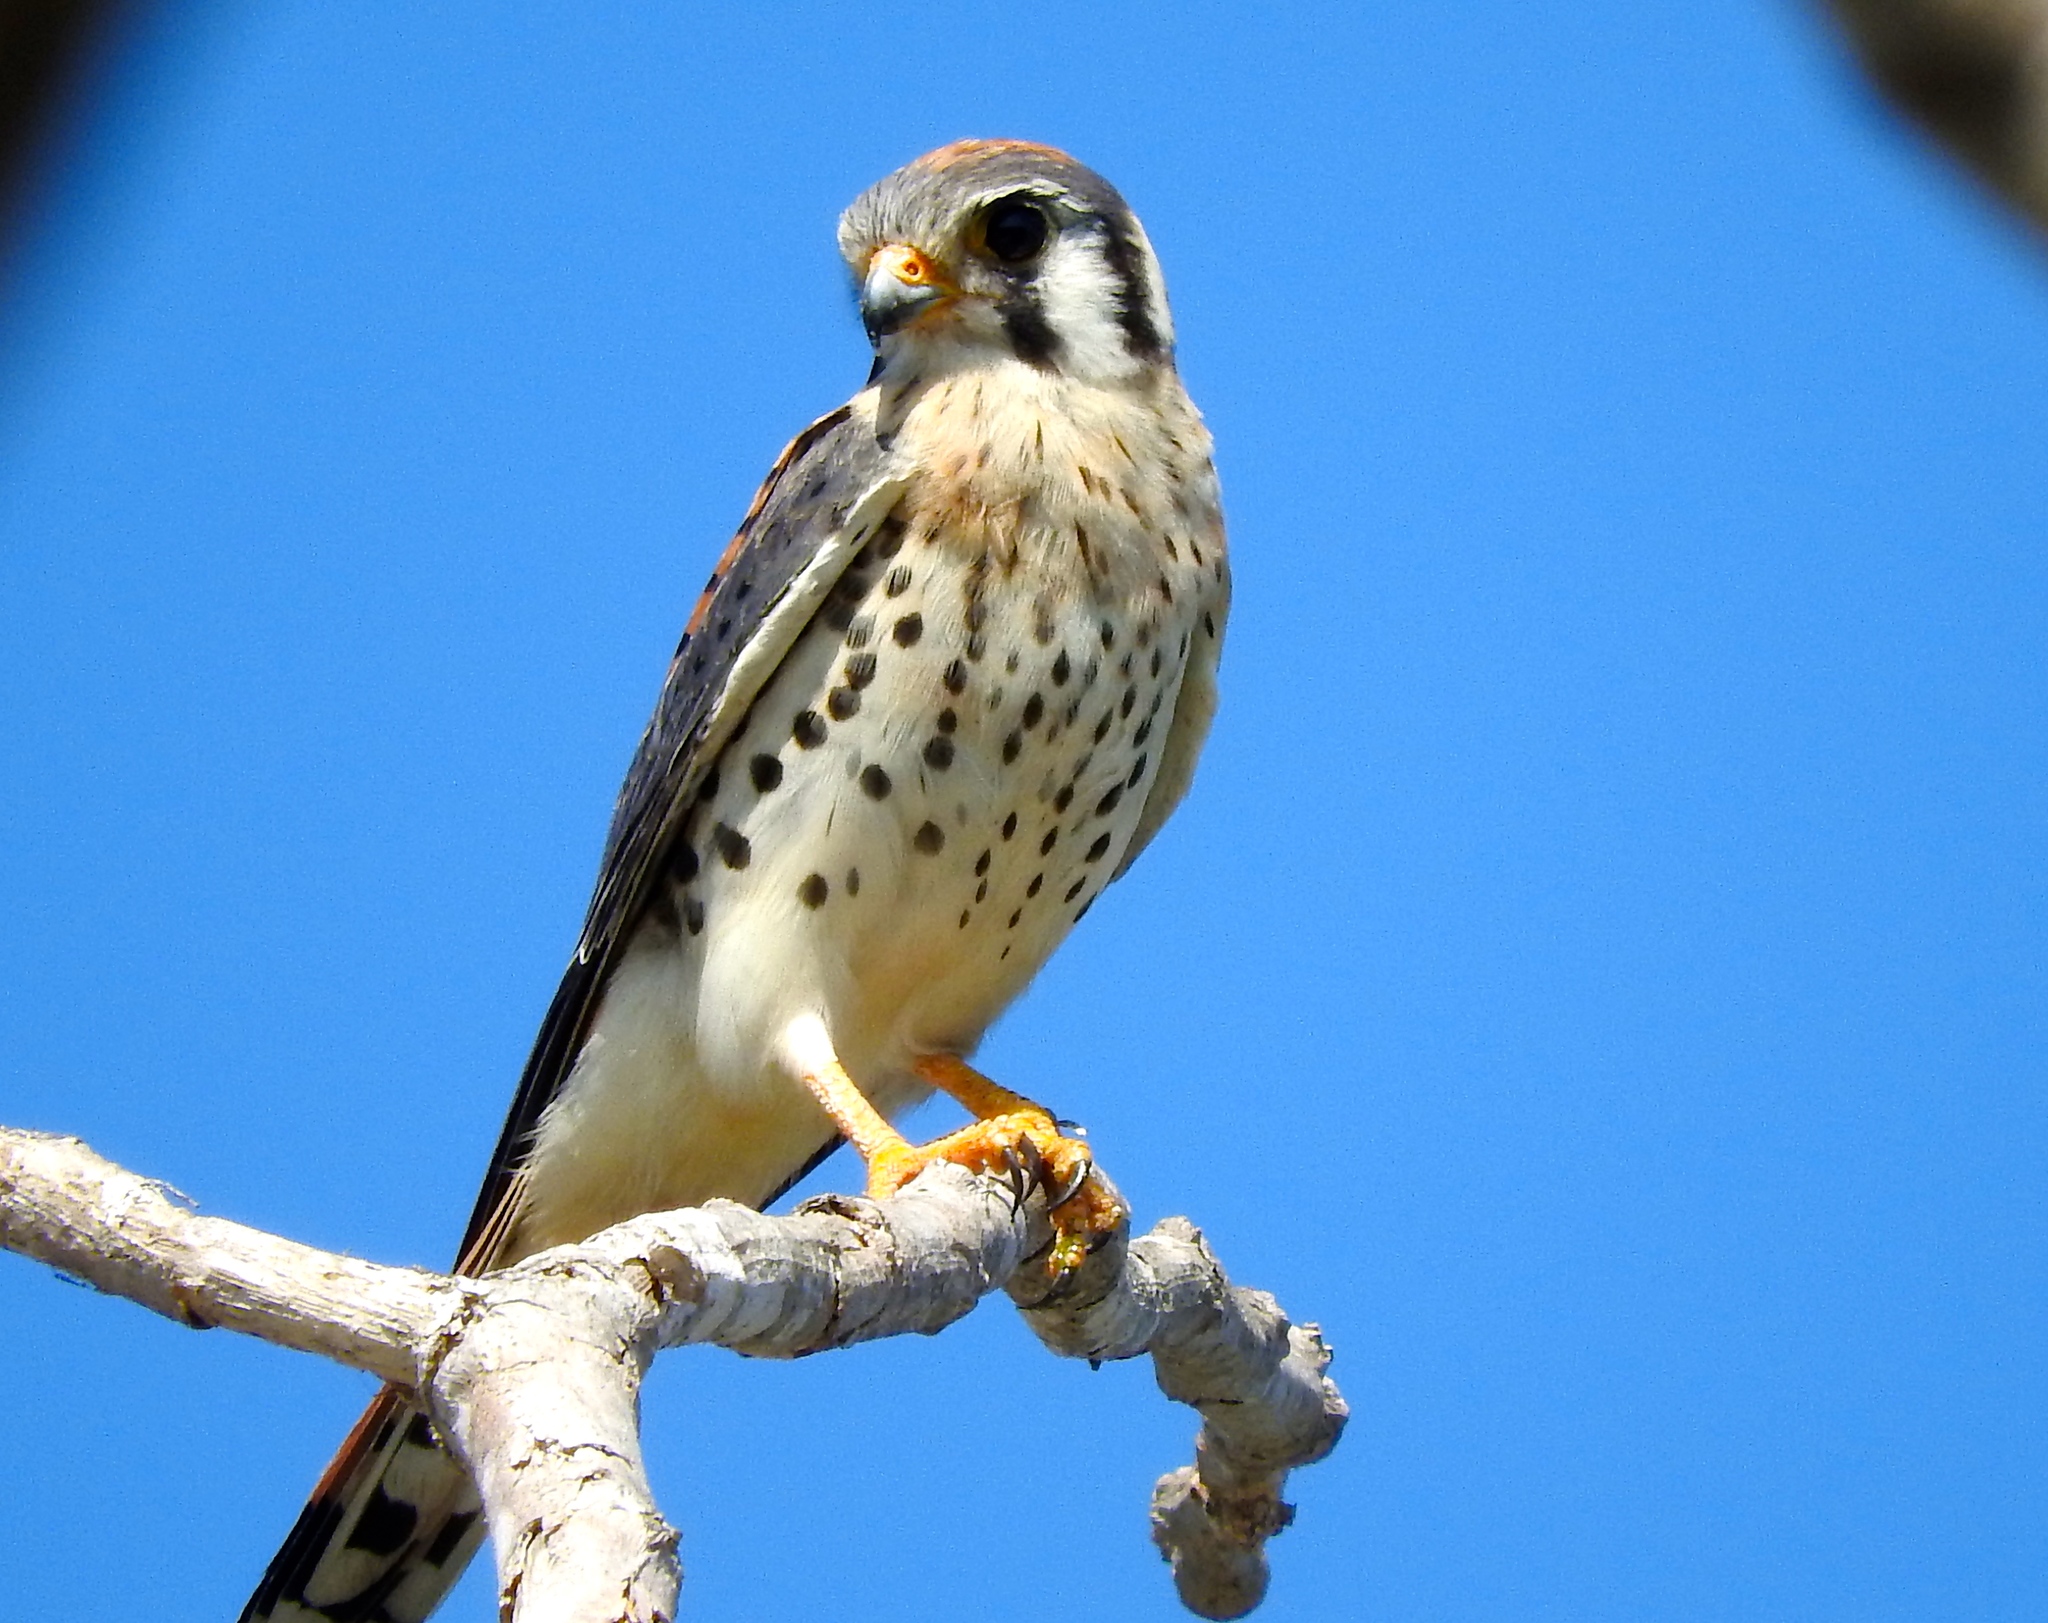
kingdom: Animalia
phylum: Chordata
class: Aves
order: Falconiformes
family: Falconidae
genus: Falco
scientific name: Falco sparverius
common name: American kestrel
